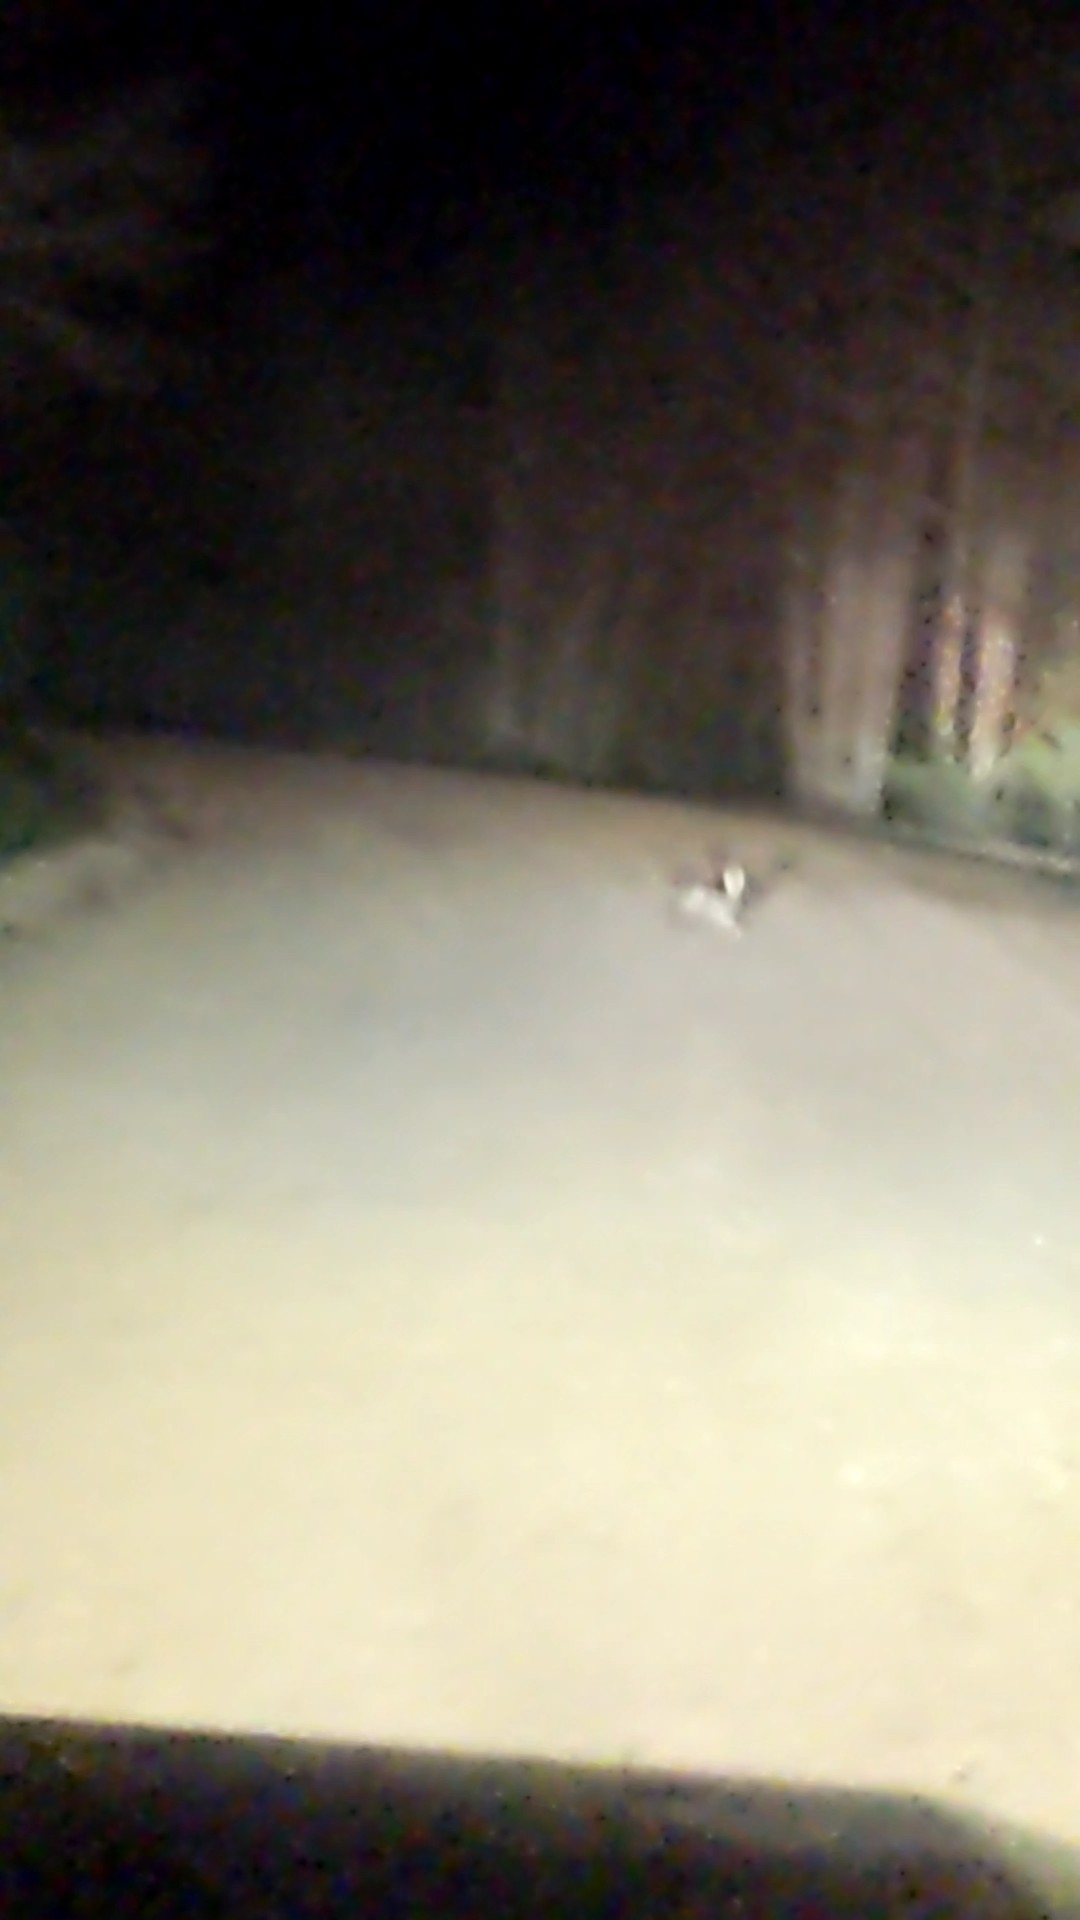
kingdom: Animalia
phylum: Chordata
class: Mammalia
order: Lagomorpha
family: Leporidae
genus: Lepus
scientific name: Lepus californicus
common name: Black-tailed jackrabbit
